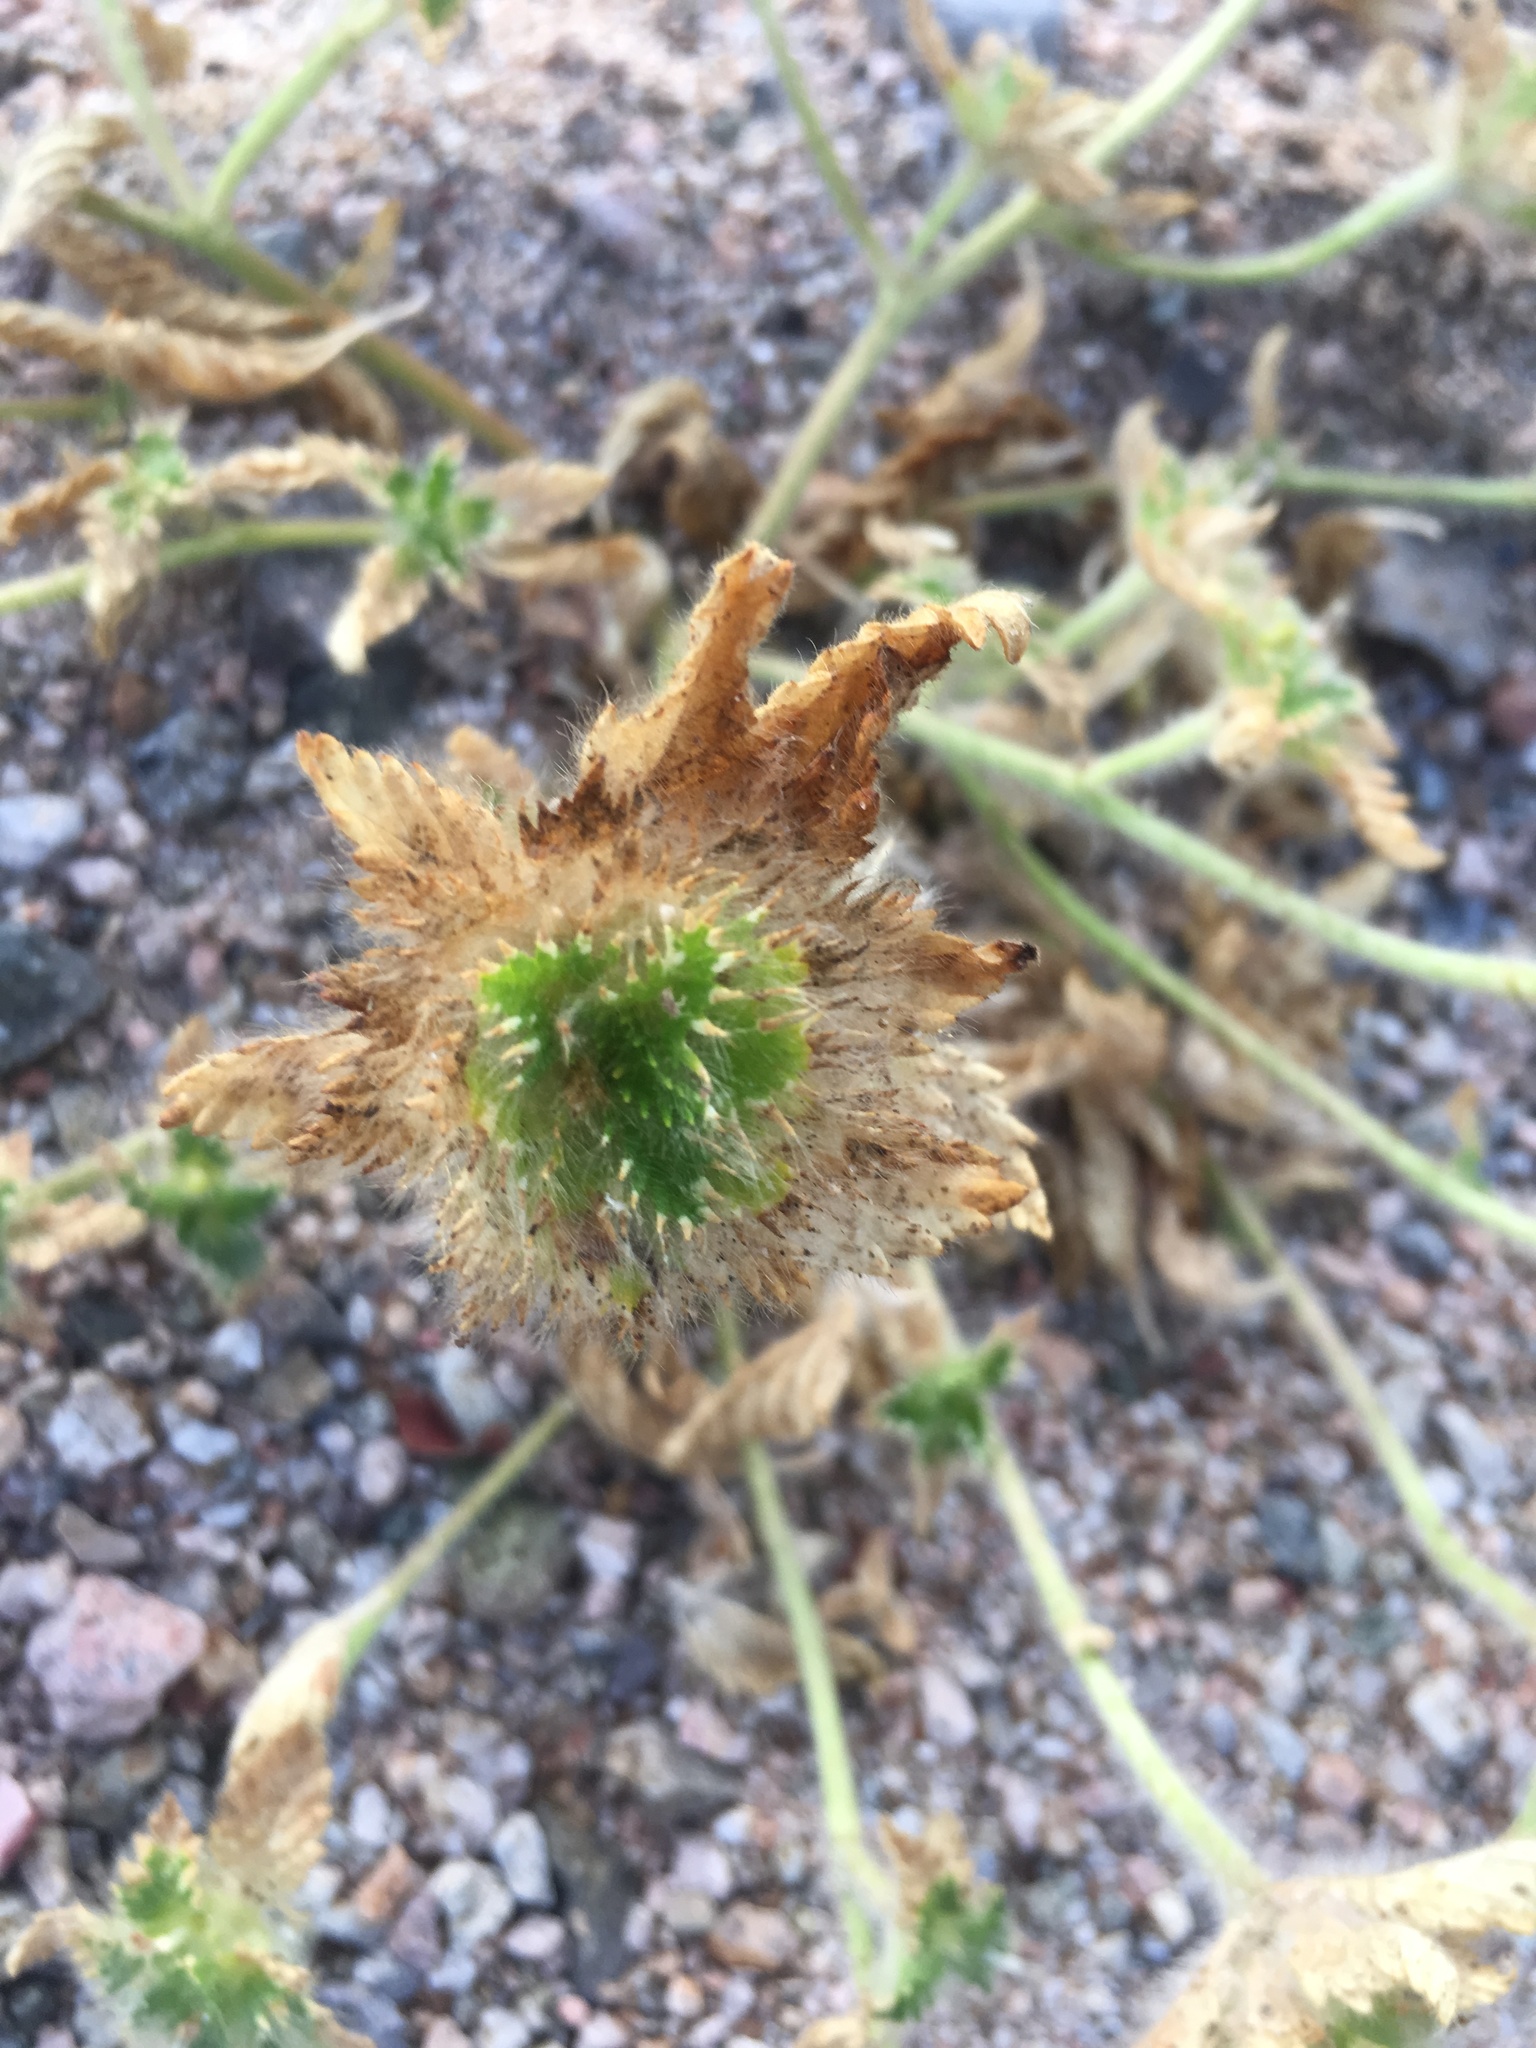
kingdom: Plantae
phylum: Tracheophyta
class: Magnoliopsida
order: Malpighiales
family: Turneraceae
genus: Turnera
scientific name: Turnera pumilea
